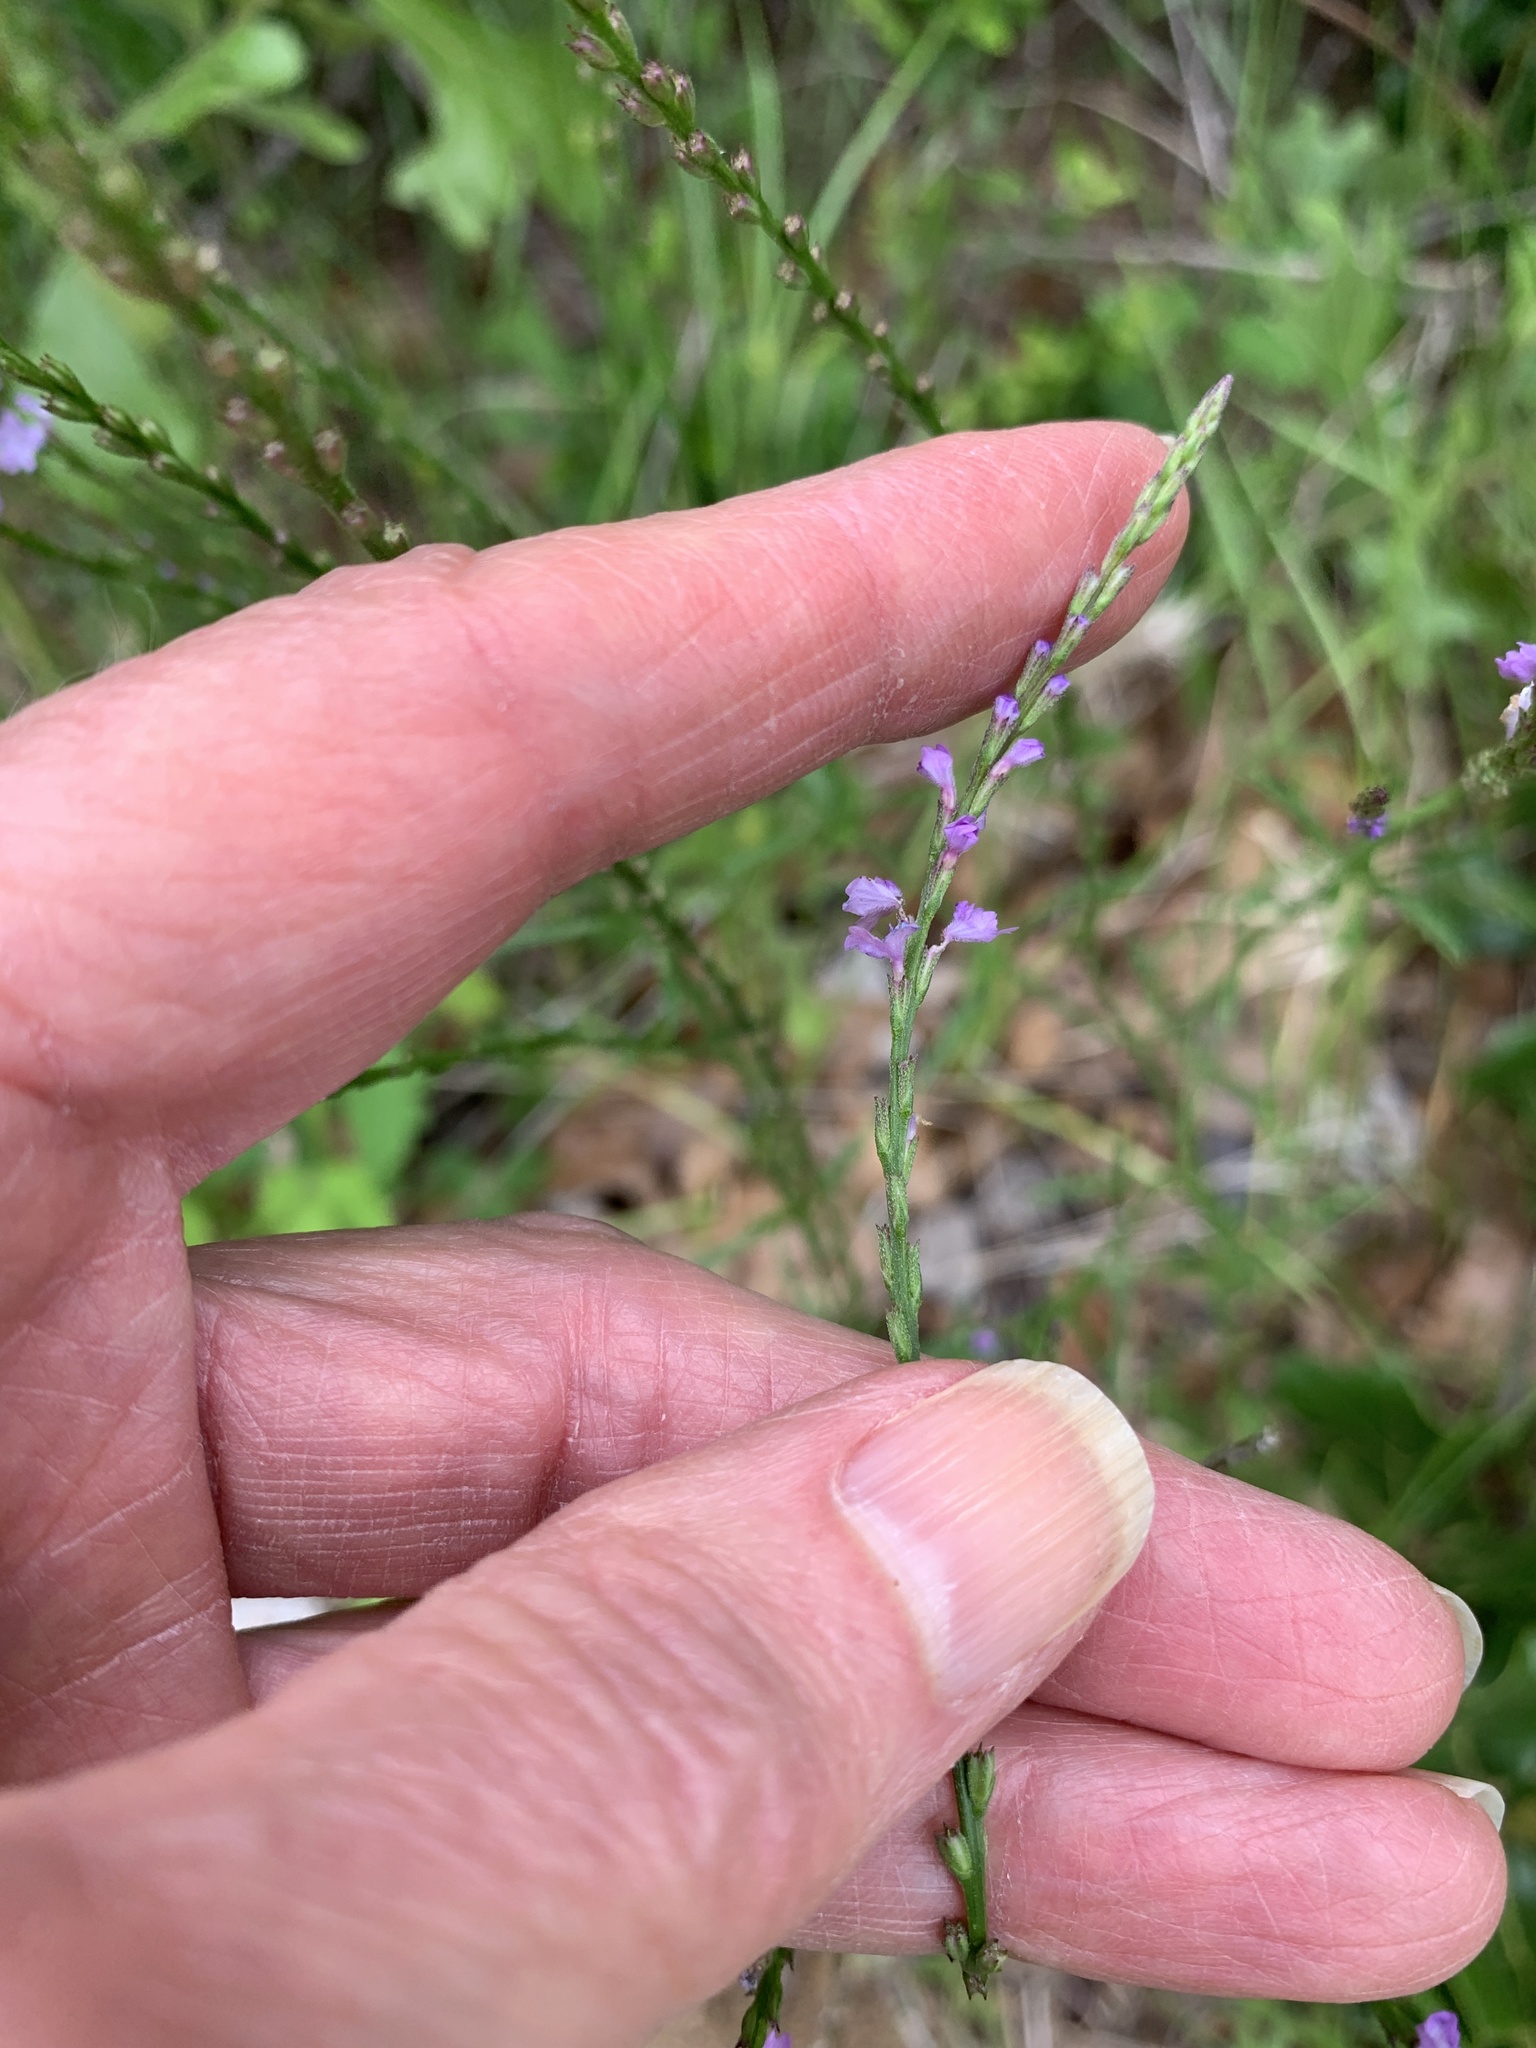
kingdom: Plantae
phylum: Tracheophyta
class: Magnoliopsida
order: Lamiales
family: Verbenaceae
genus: Verbena
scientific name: Verbena halei
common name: Texas vervain
